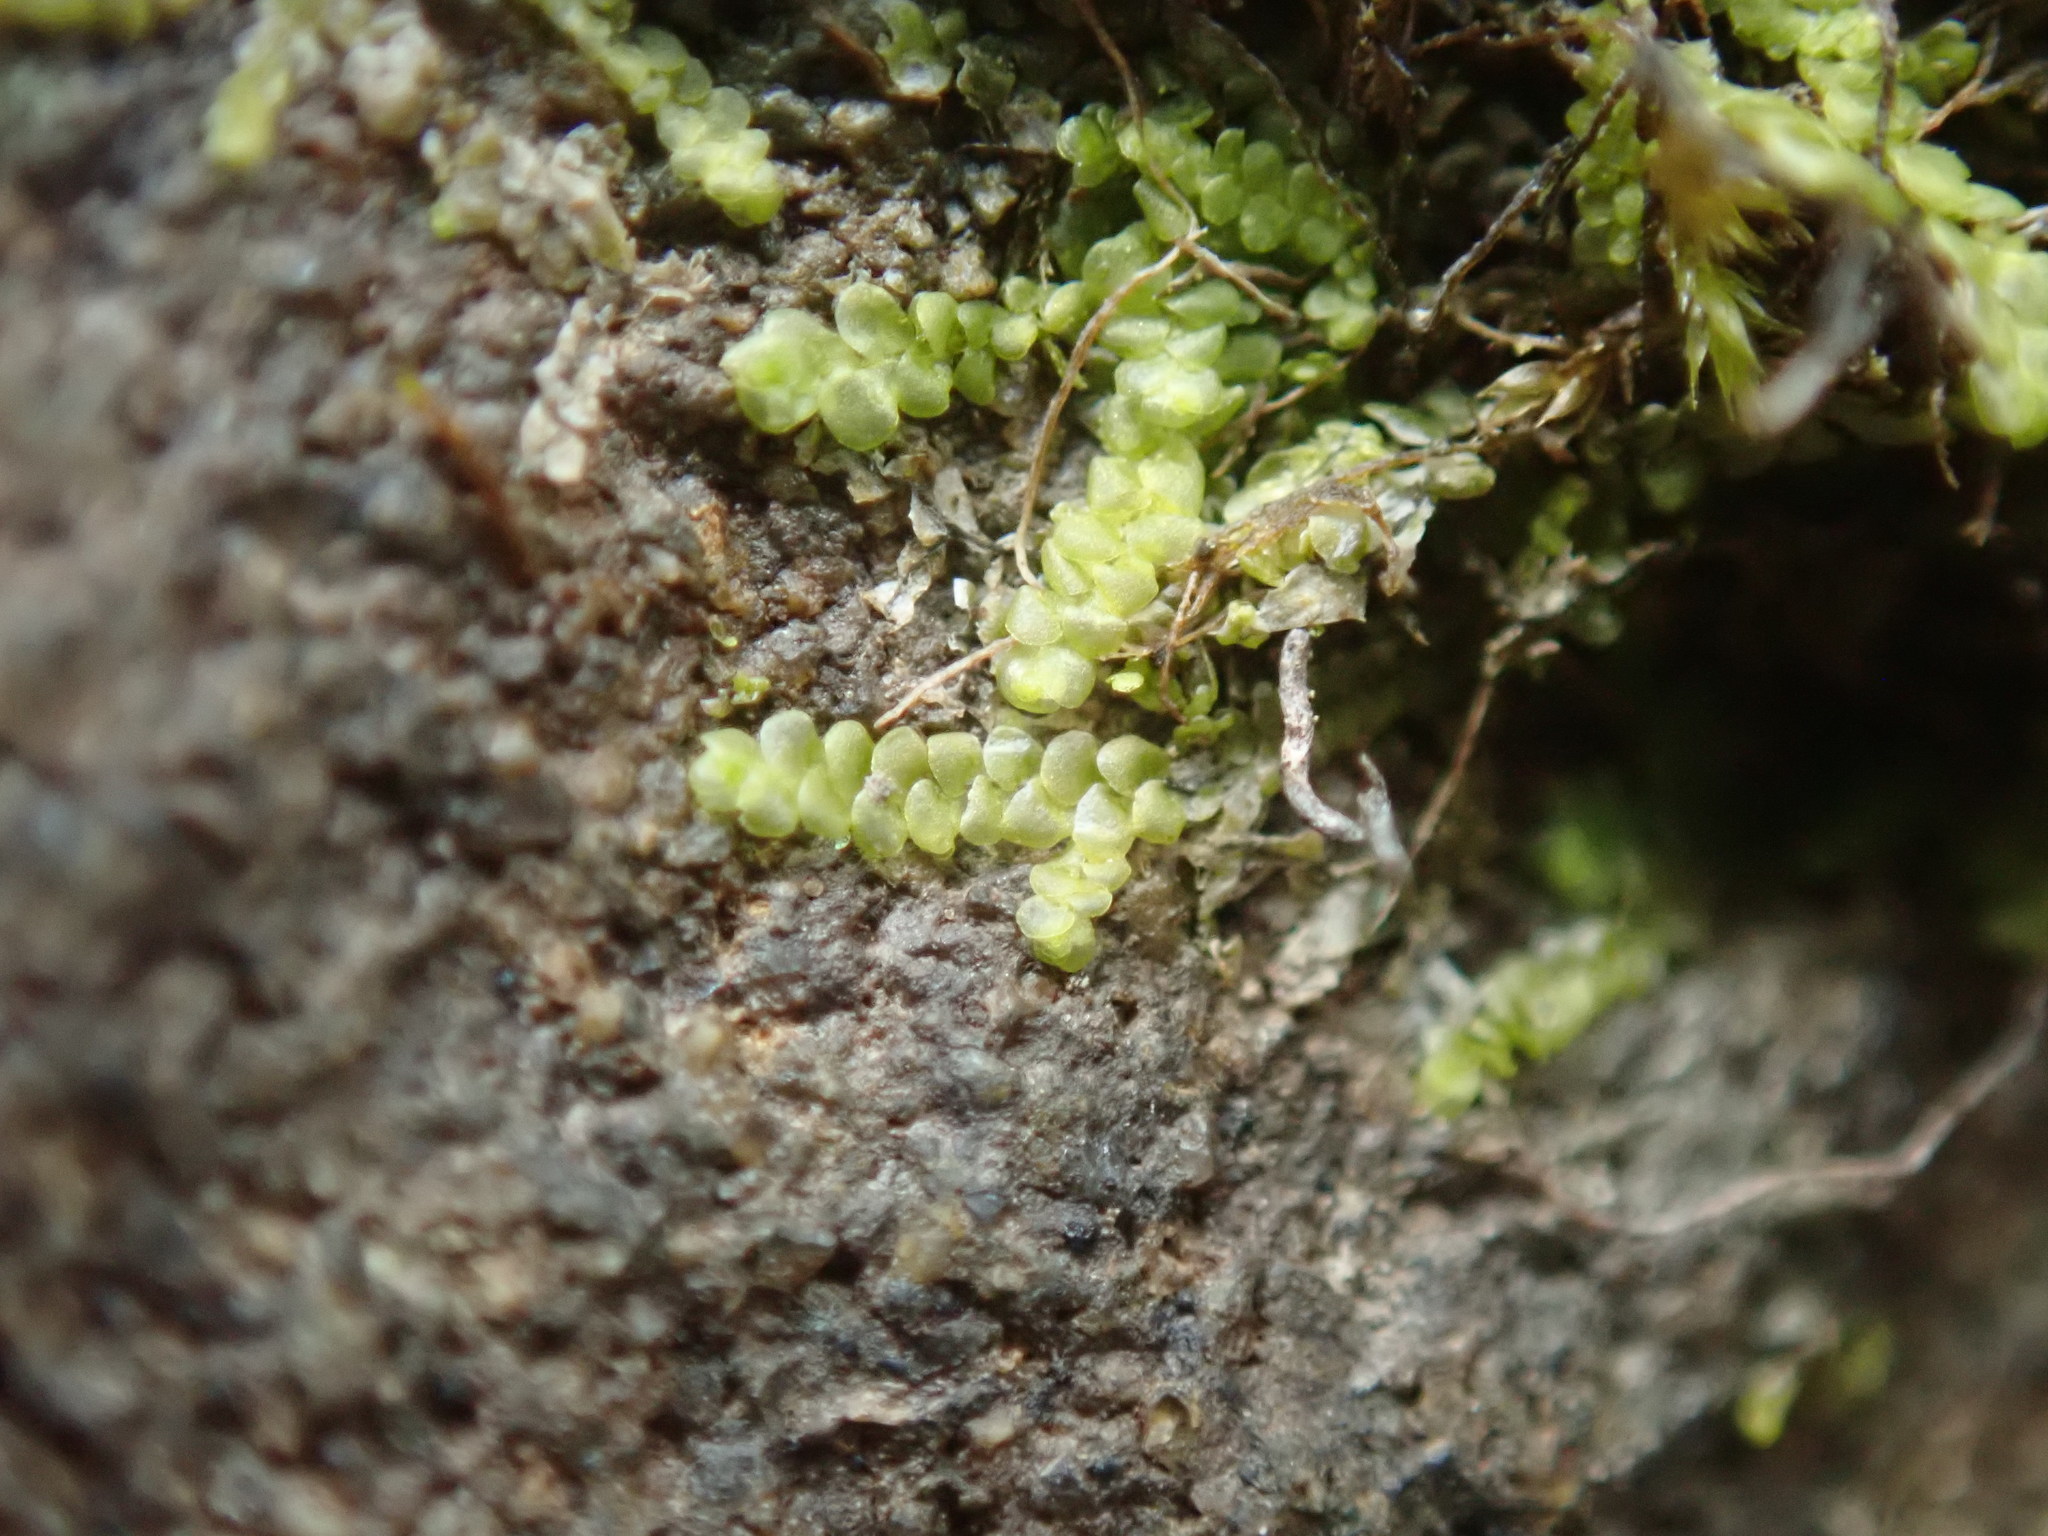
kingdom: Plantae
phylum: Marchantiophyta
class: Jungermanniopsida
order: Porellales
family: Radulaceae
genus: Radula
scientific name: Radula complanata
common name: Flat-leaved scalewort
